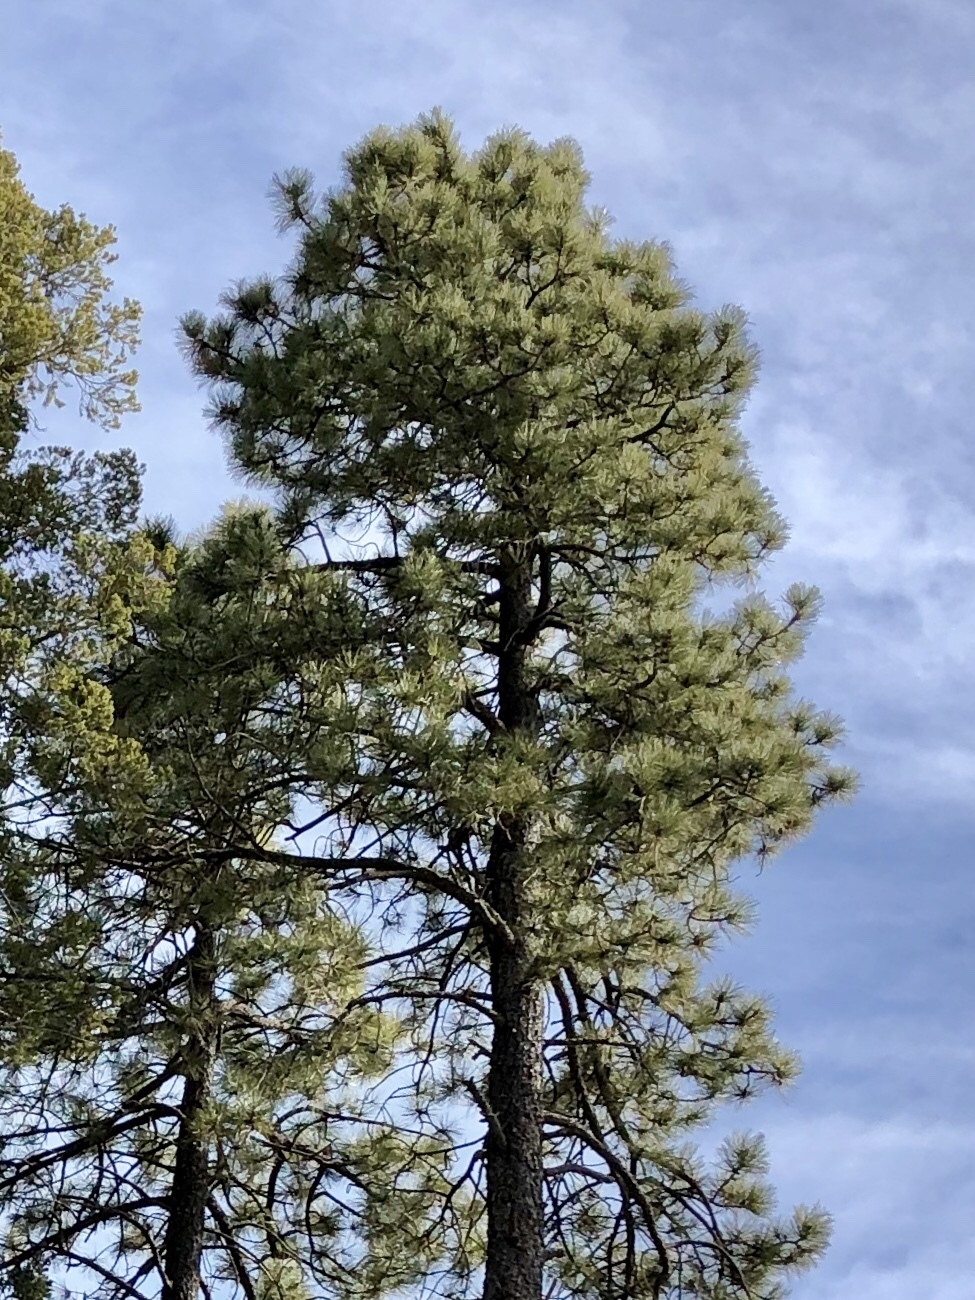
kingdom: Plantae
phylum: Tracheophyta
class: Pinopsida
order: Pinales
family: Pinaceae
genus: Pinus
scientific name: Pinus ponderosa
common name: Western yellow-pine
